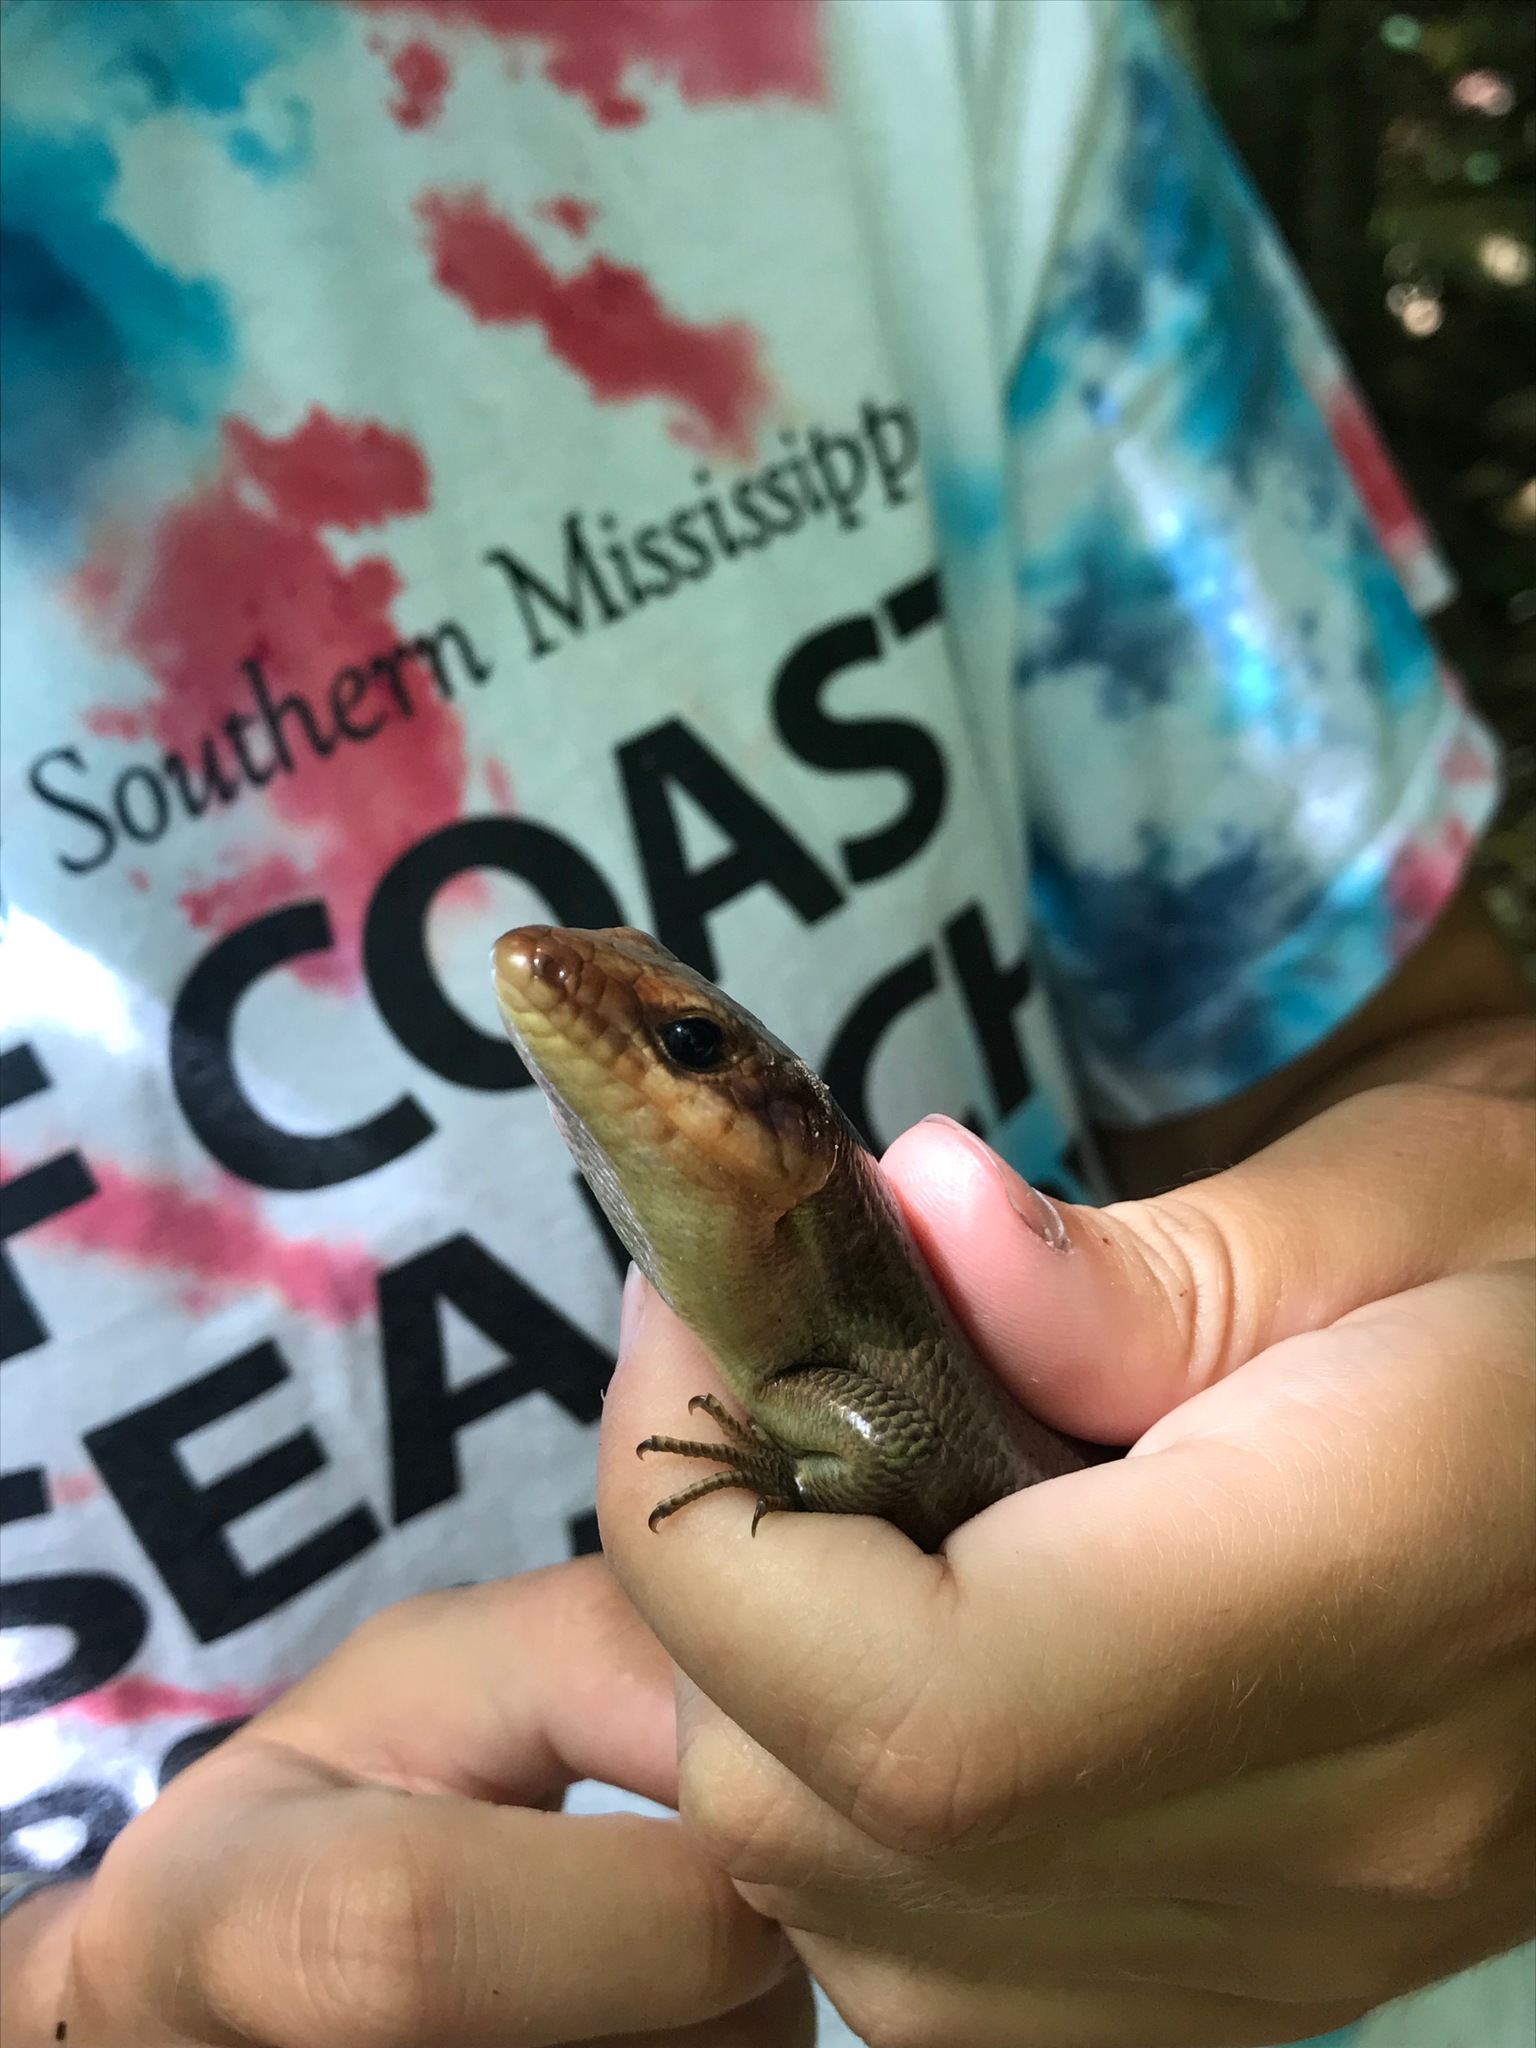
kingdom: Animalia
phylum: Chordata
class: Squamata
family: Scincidae
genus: Plestiodon
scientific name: Plestiodon laticeps
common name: Broadhead skink
